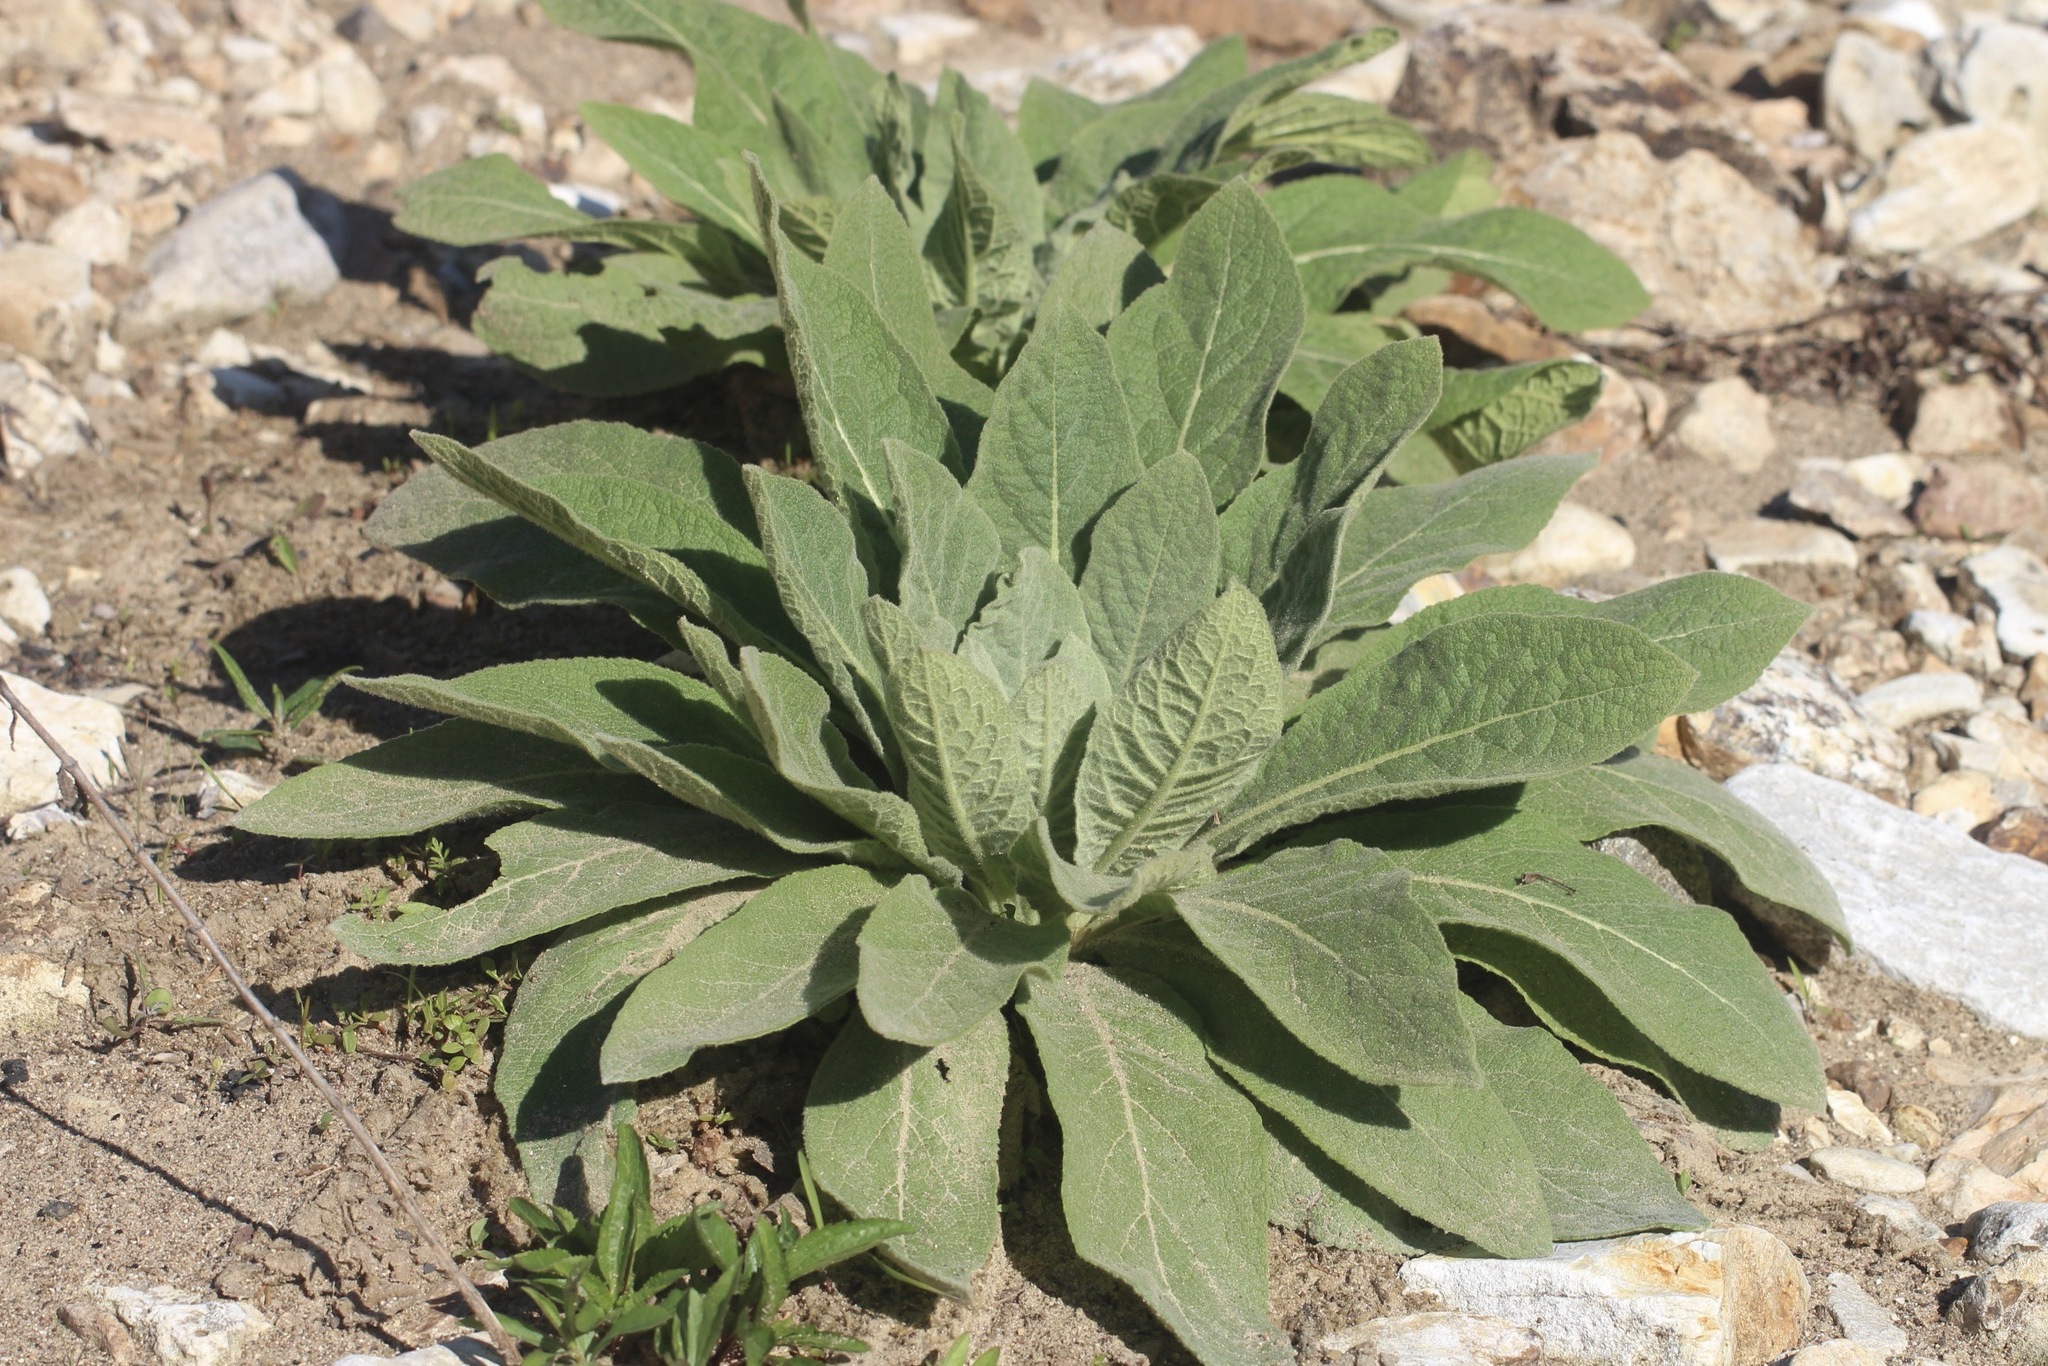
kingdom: Plantae
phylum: Tracheophyta
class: Magnoliopsida
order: Lamiales
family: Scrophulariaceae
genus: Verbascum
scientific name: Verbascum thapsus
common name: Common mullein
